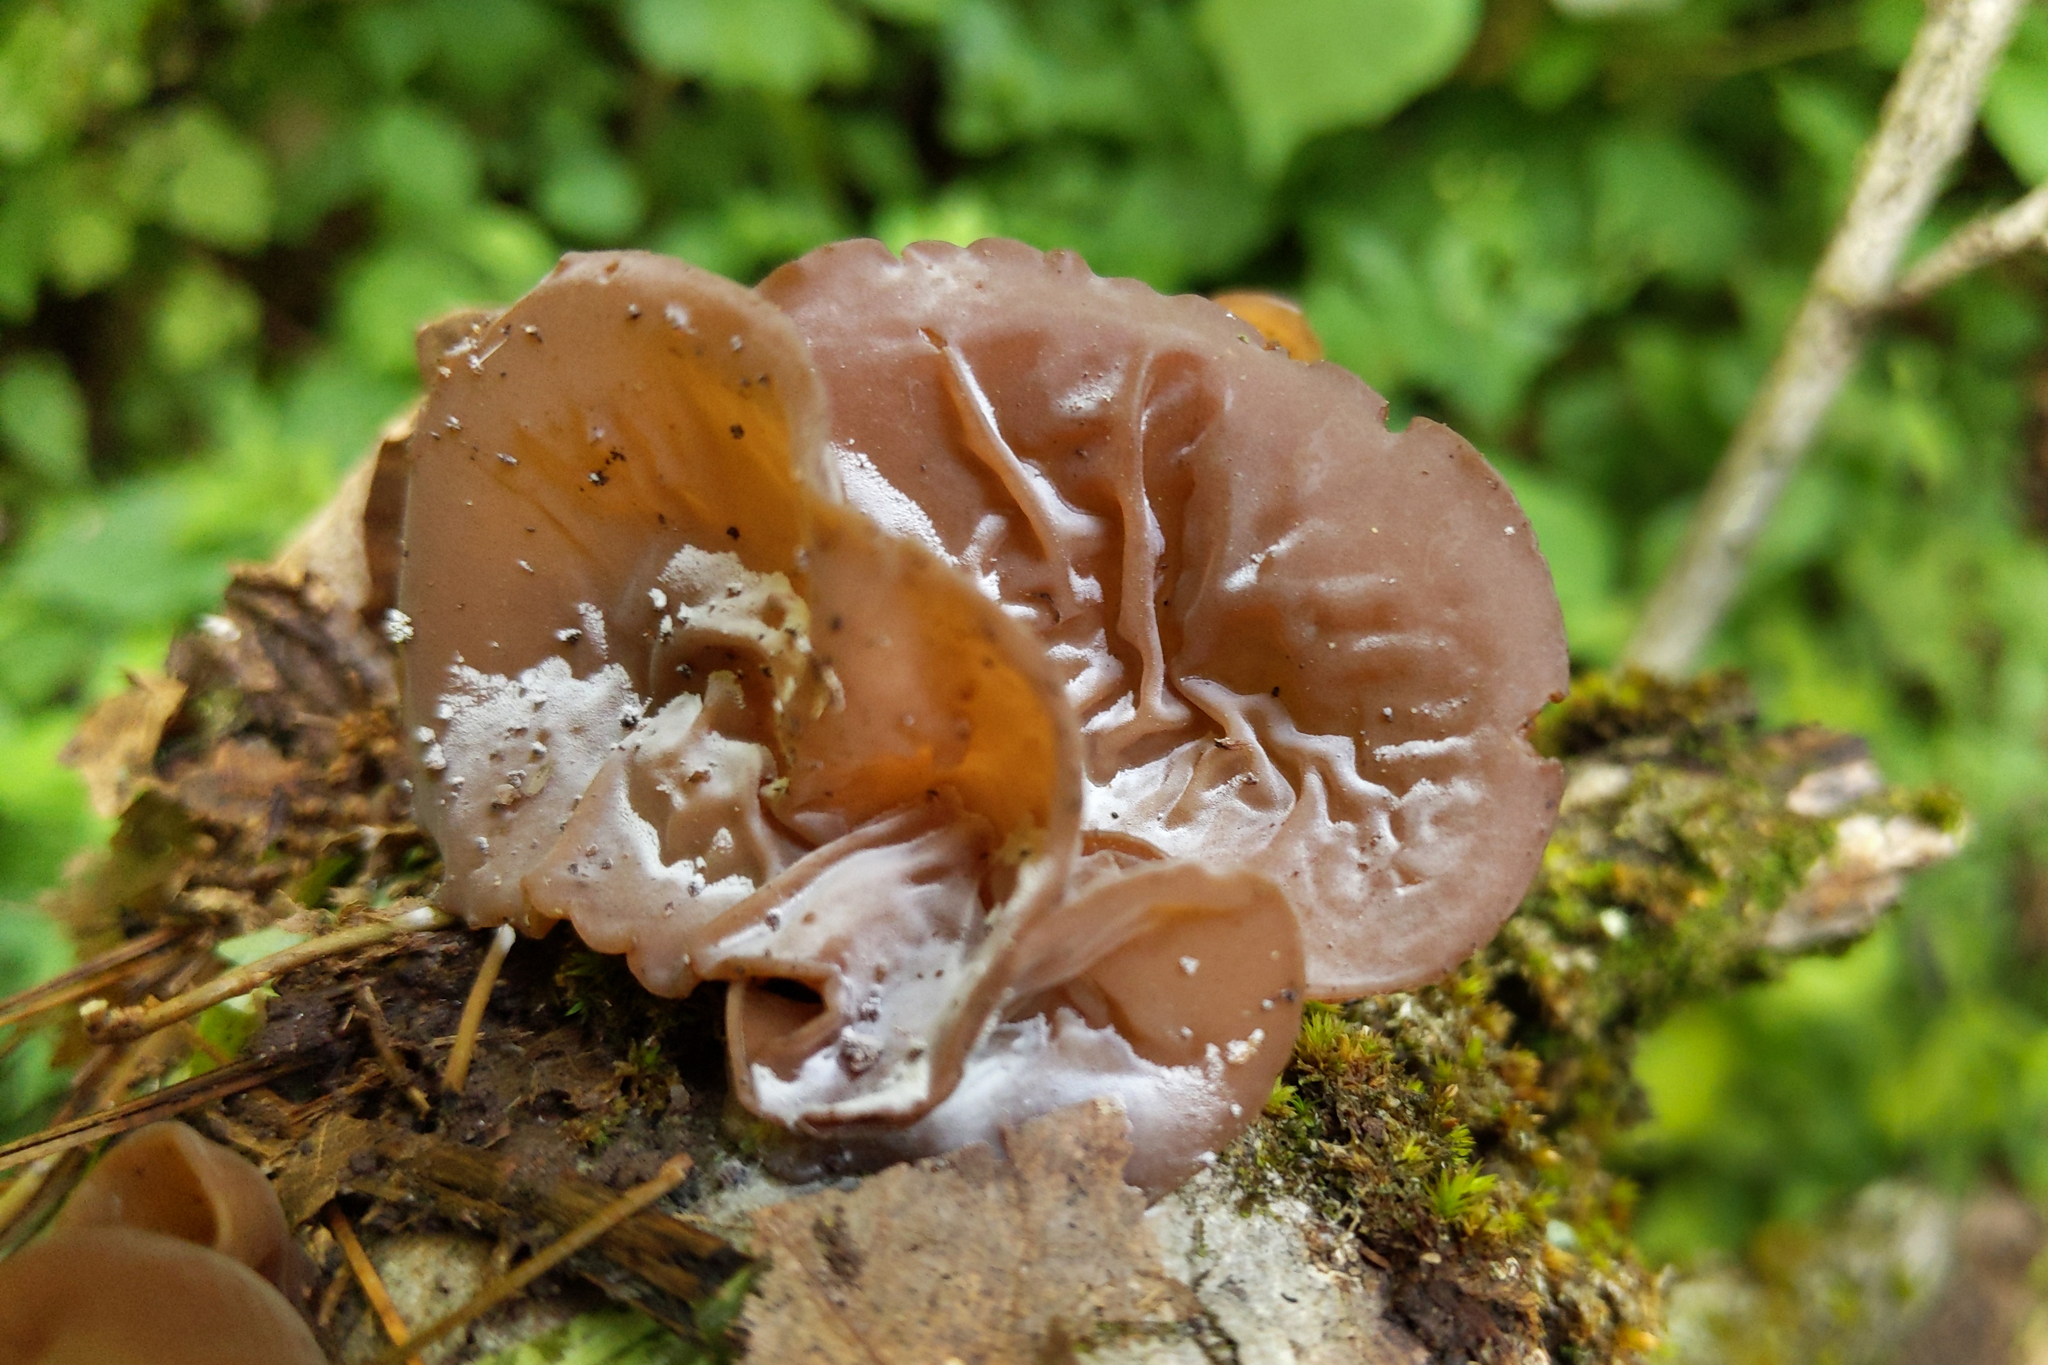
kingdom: Fungi
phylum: Basidiomycota
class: Agaricomycetes
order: Auriculariales
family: Auriculariaceae
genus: Auricularia
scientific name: Auricularia americana
